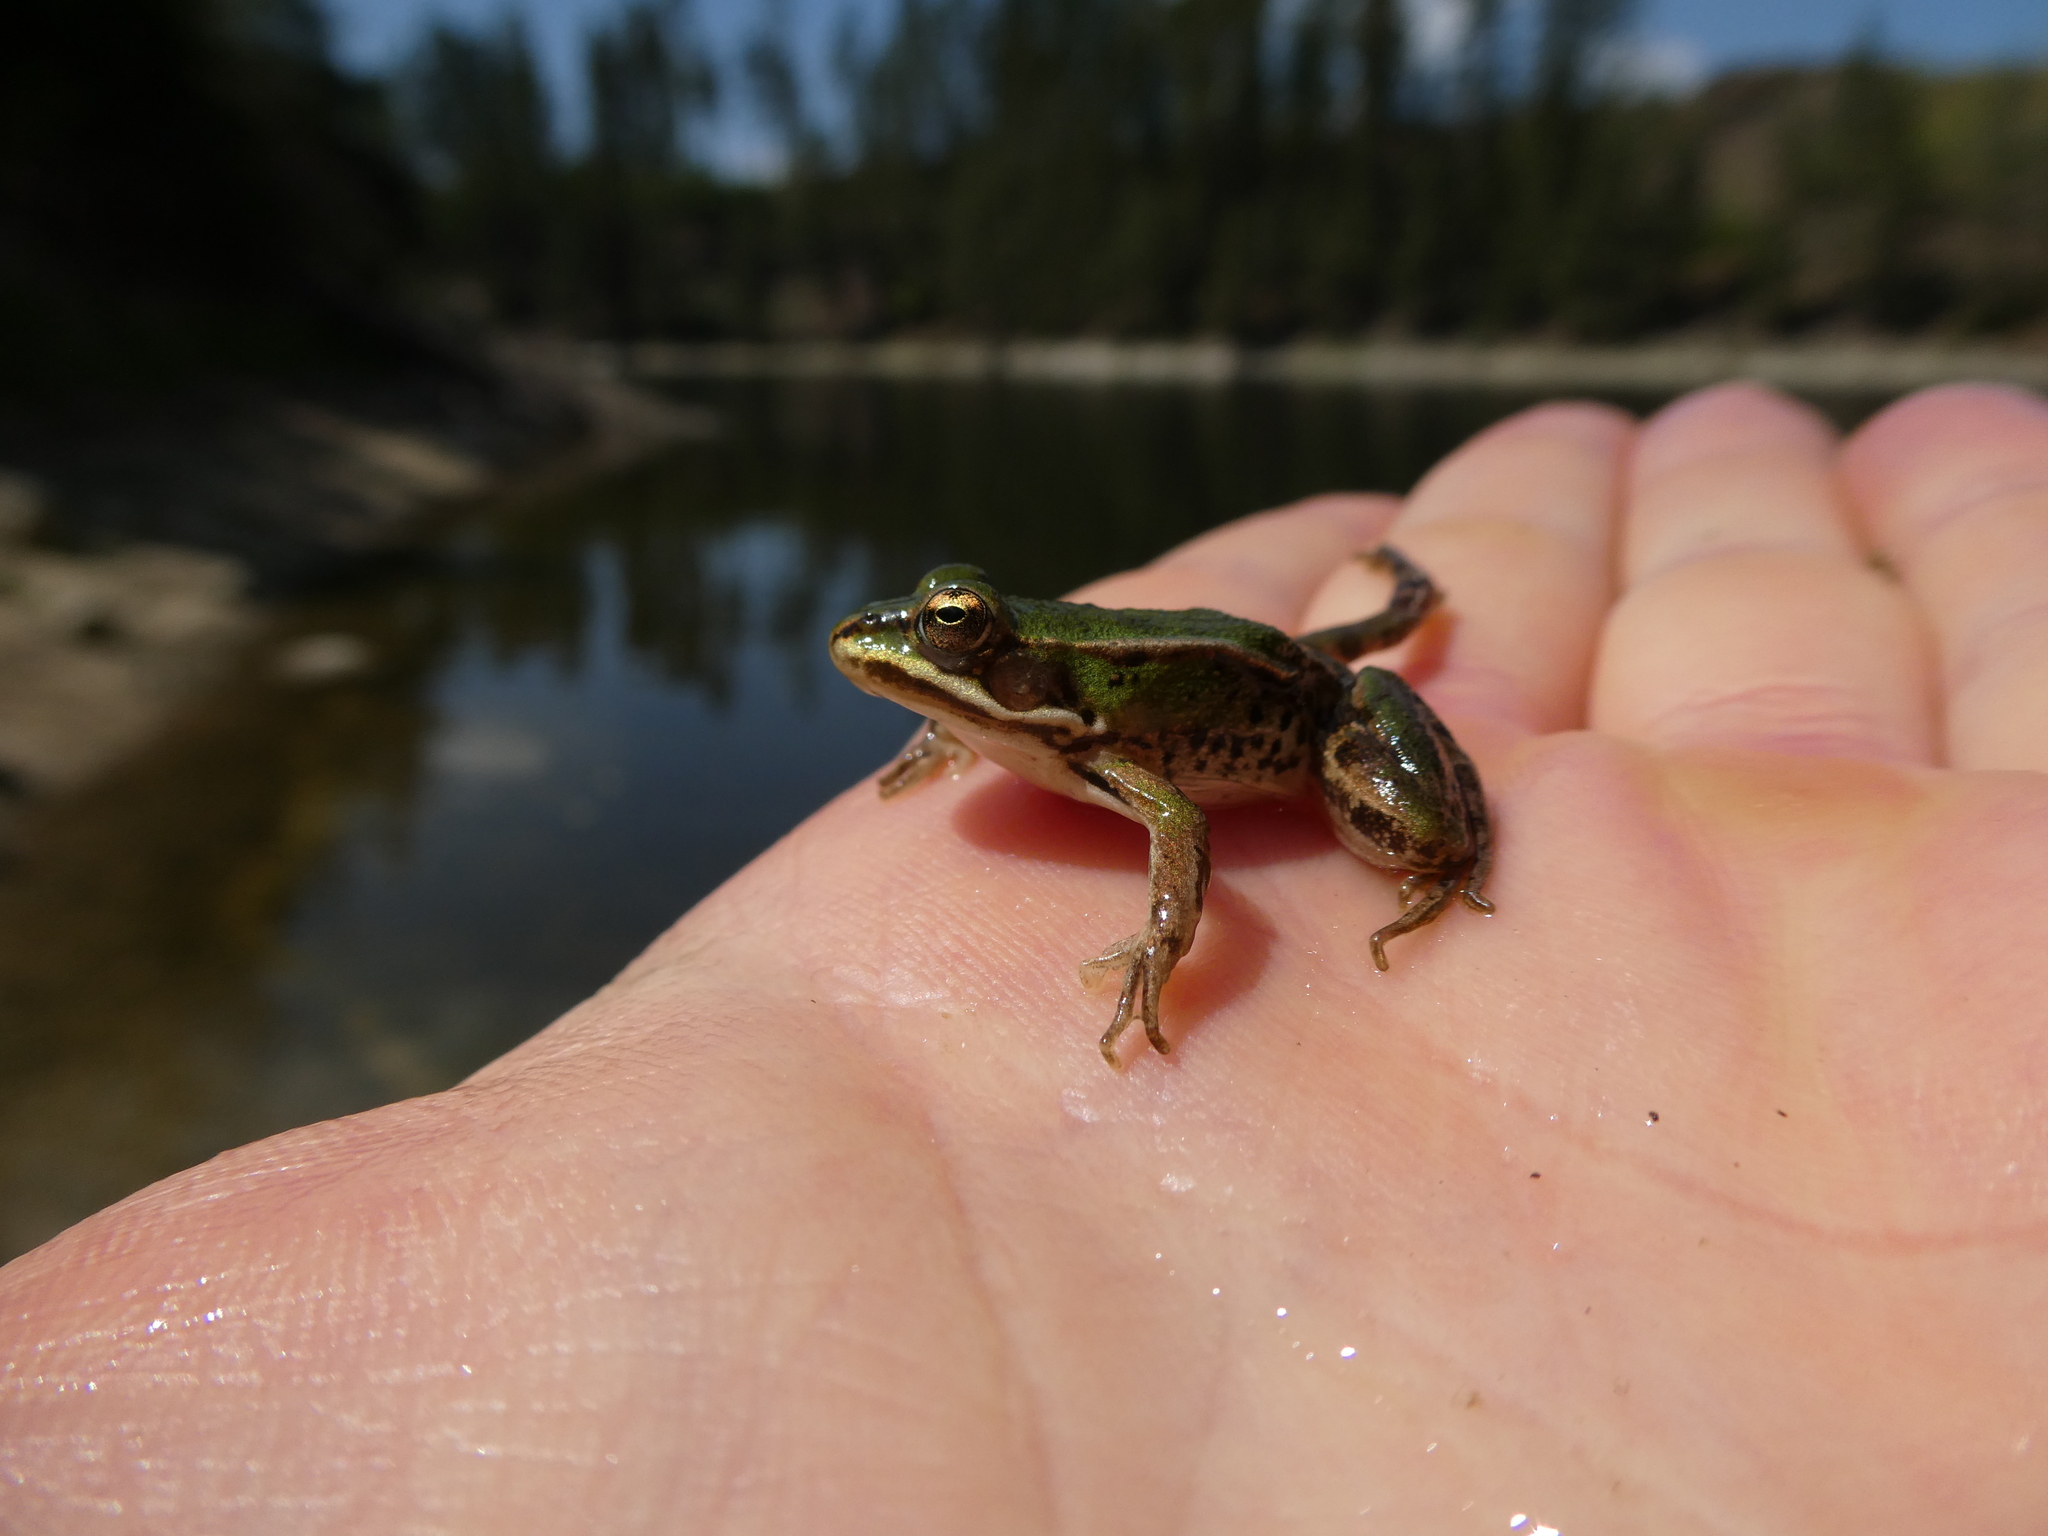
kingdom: Animalia
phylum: Chordata
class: Amphibia
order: Anura
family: Ranidae
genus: Pelophylax
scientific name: Pelophylax
